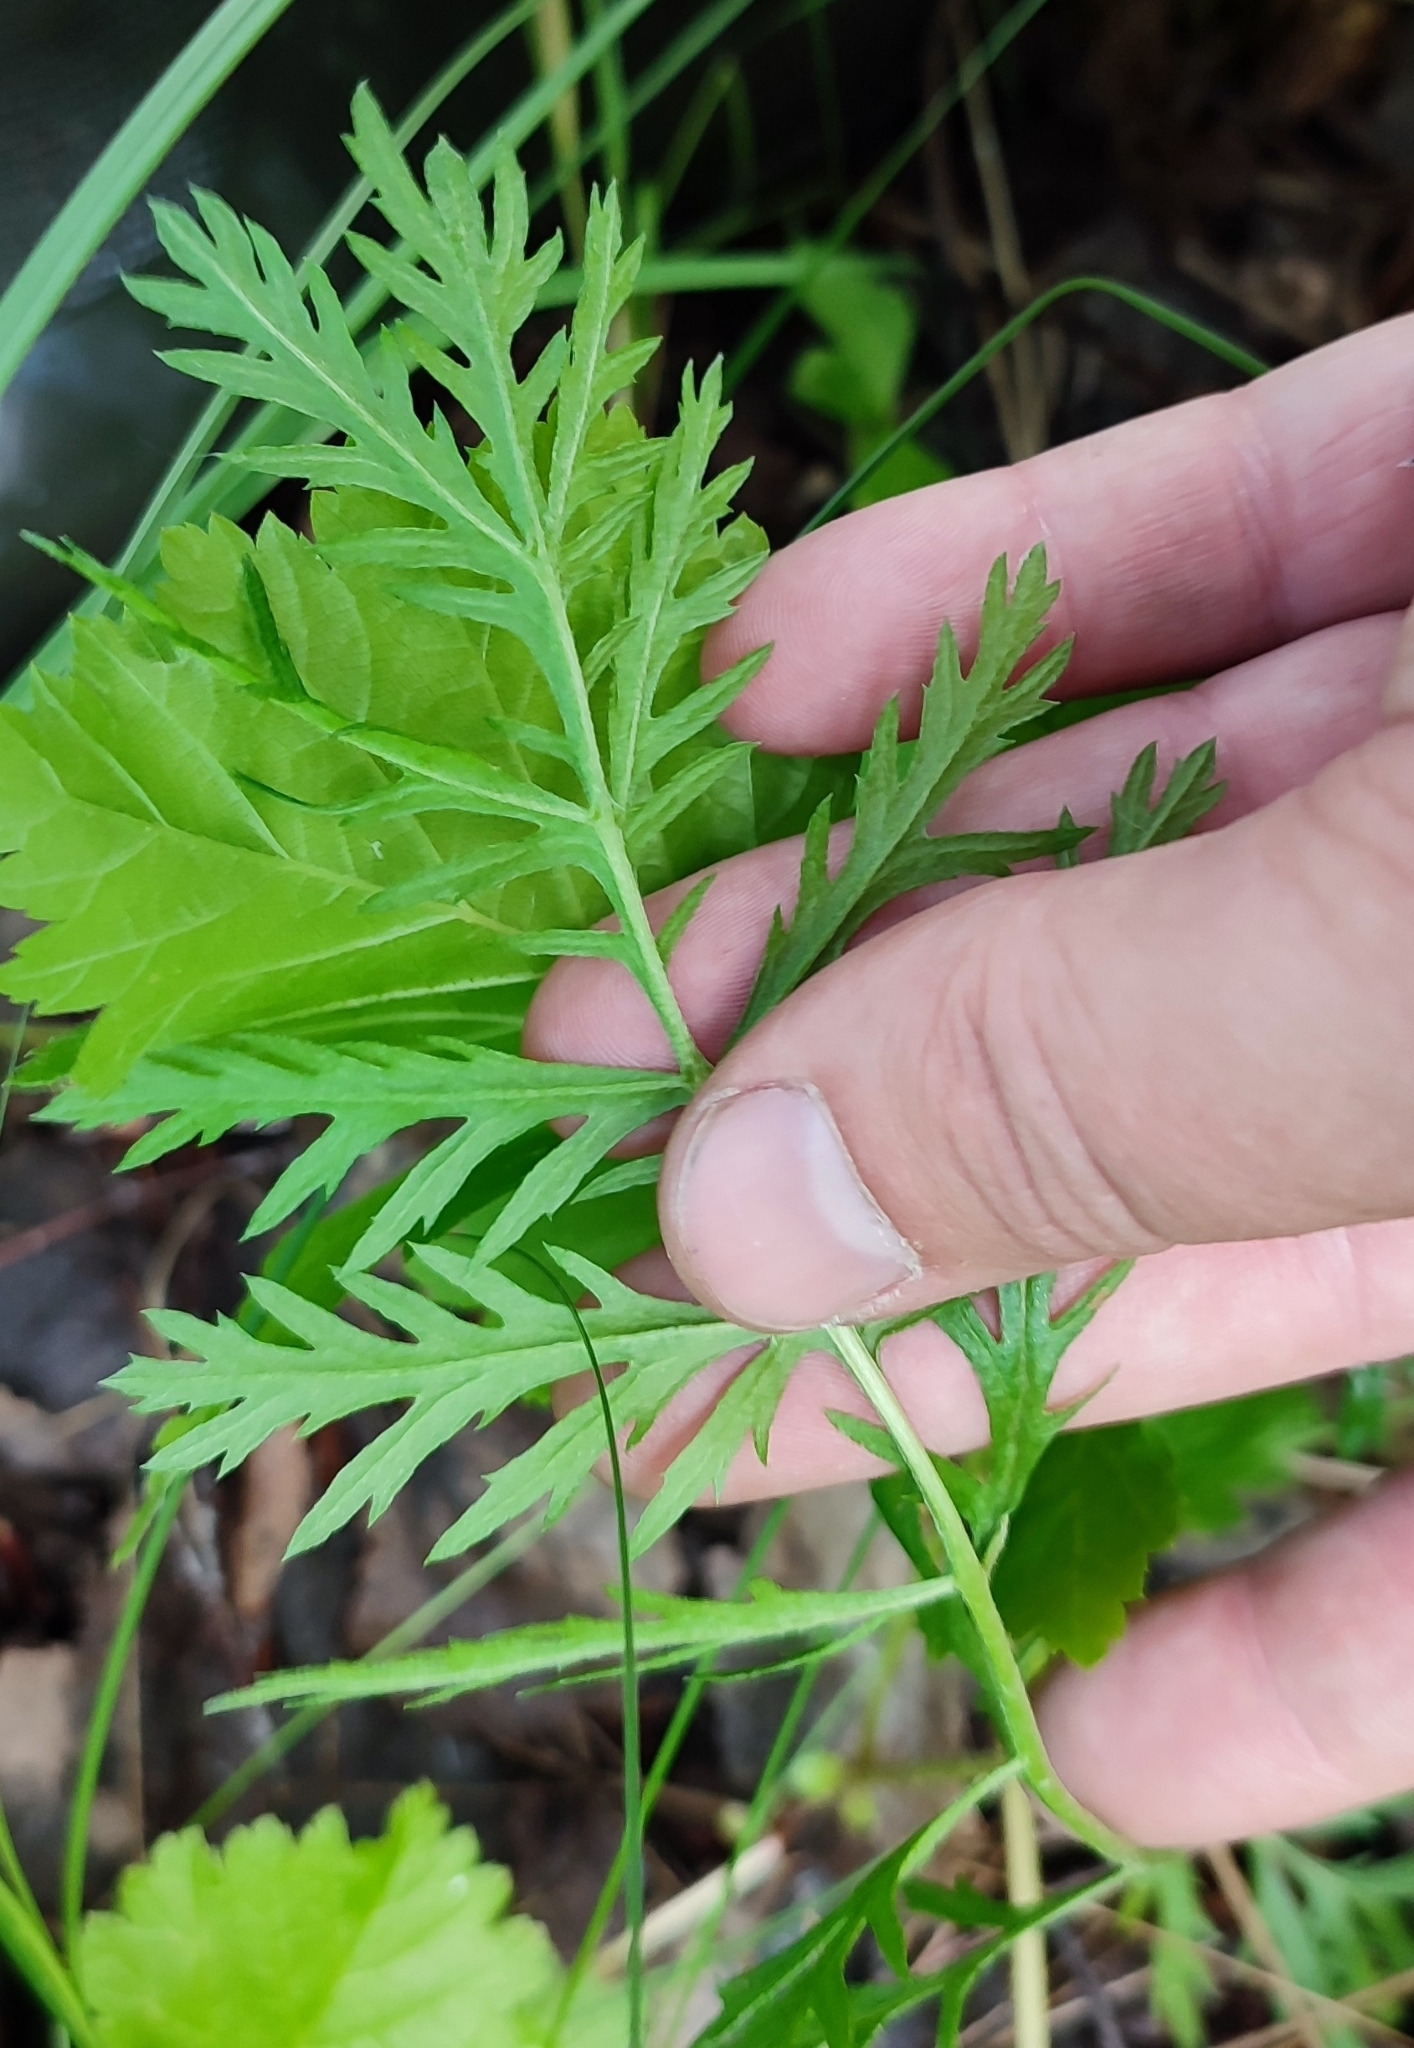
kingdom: Plantae
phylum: Tracheophyta
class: Magnoliopsida
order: Asterales
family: Asteraceae
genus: Artemisia
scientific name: Artemisia latifolia
